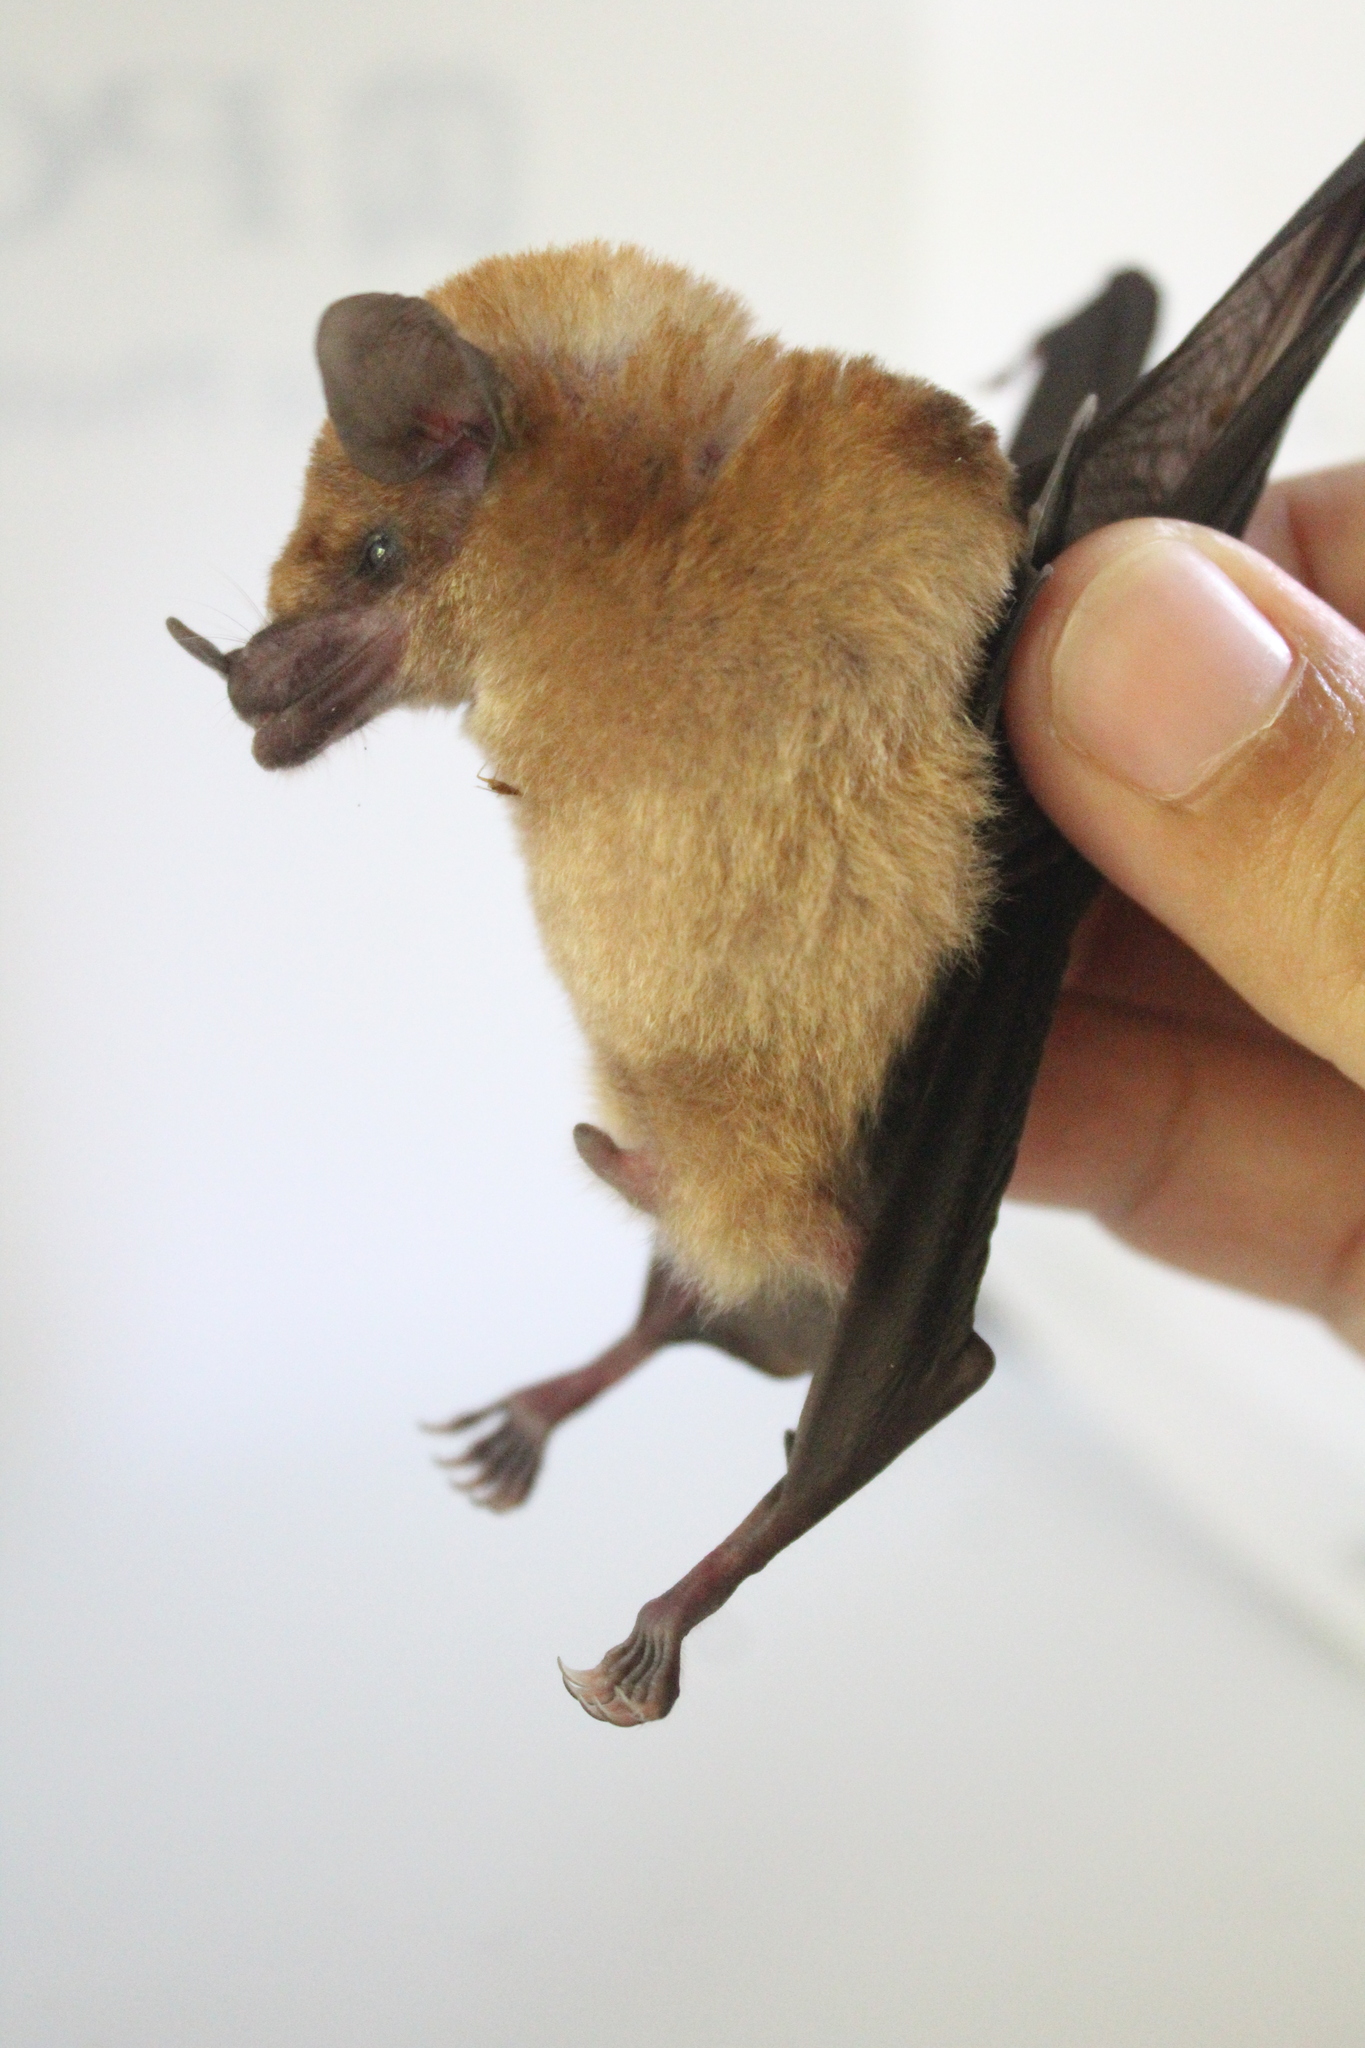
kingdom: Animalia
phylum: Chordata
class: Mammalia
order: Chiroptera
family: Phyllostomidae
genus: Lonchophylla
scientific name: Lonchophylla robusta
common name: Orange nectar bat
